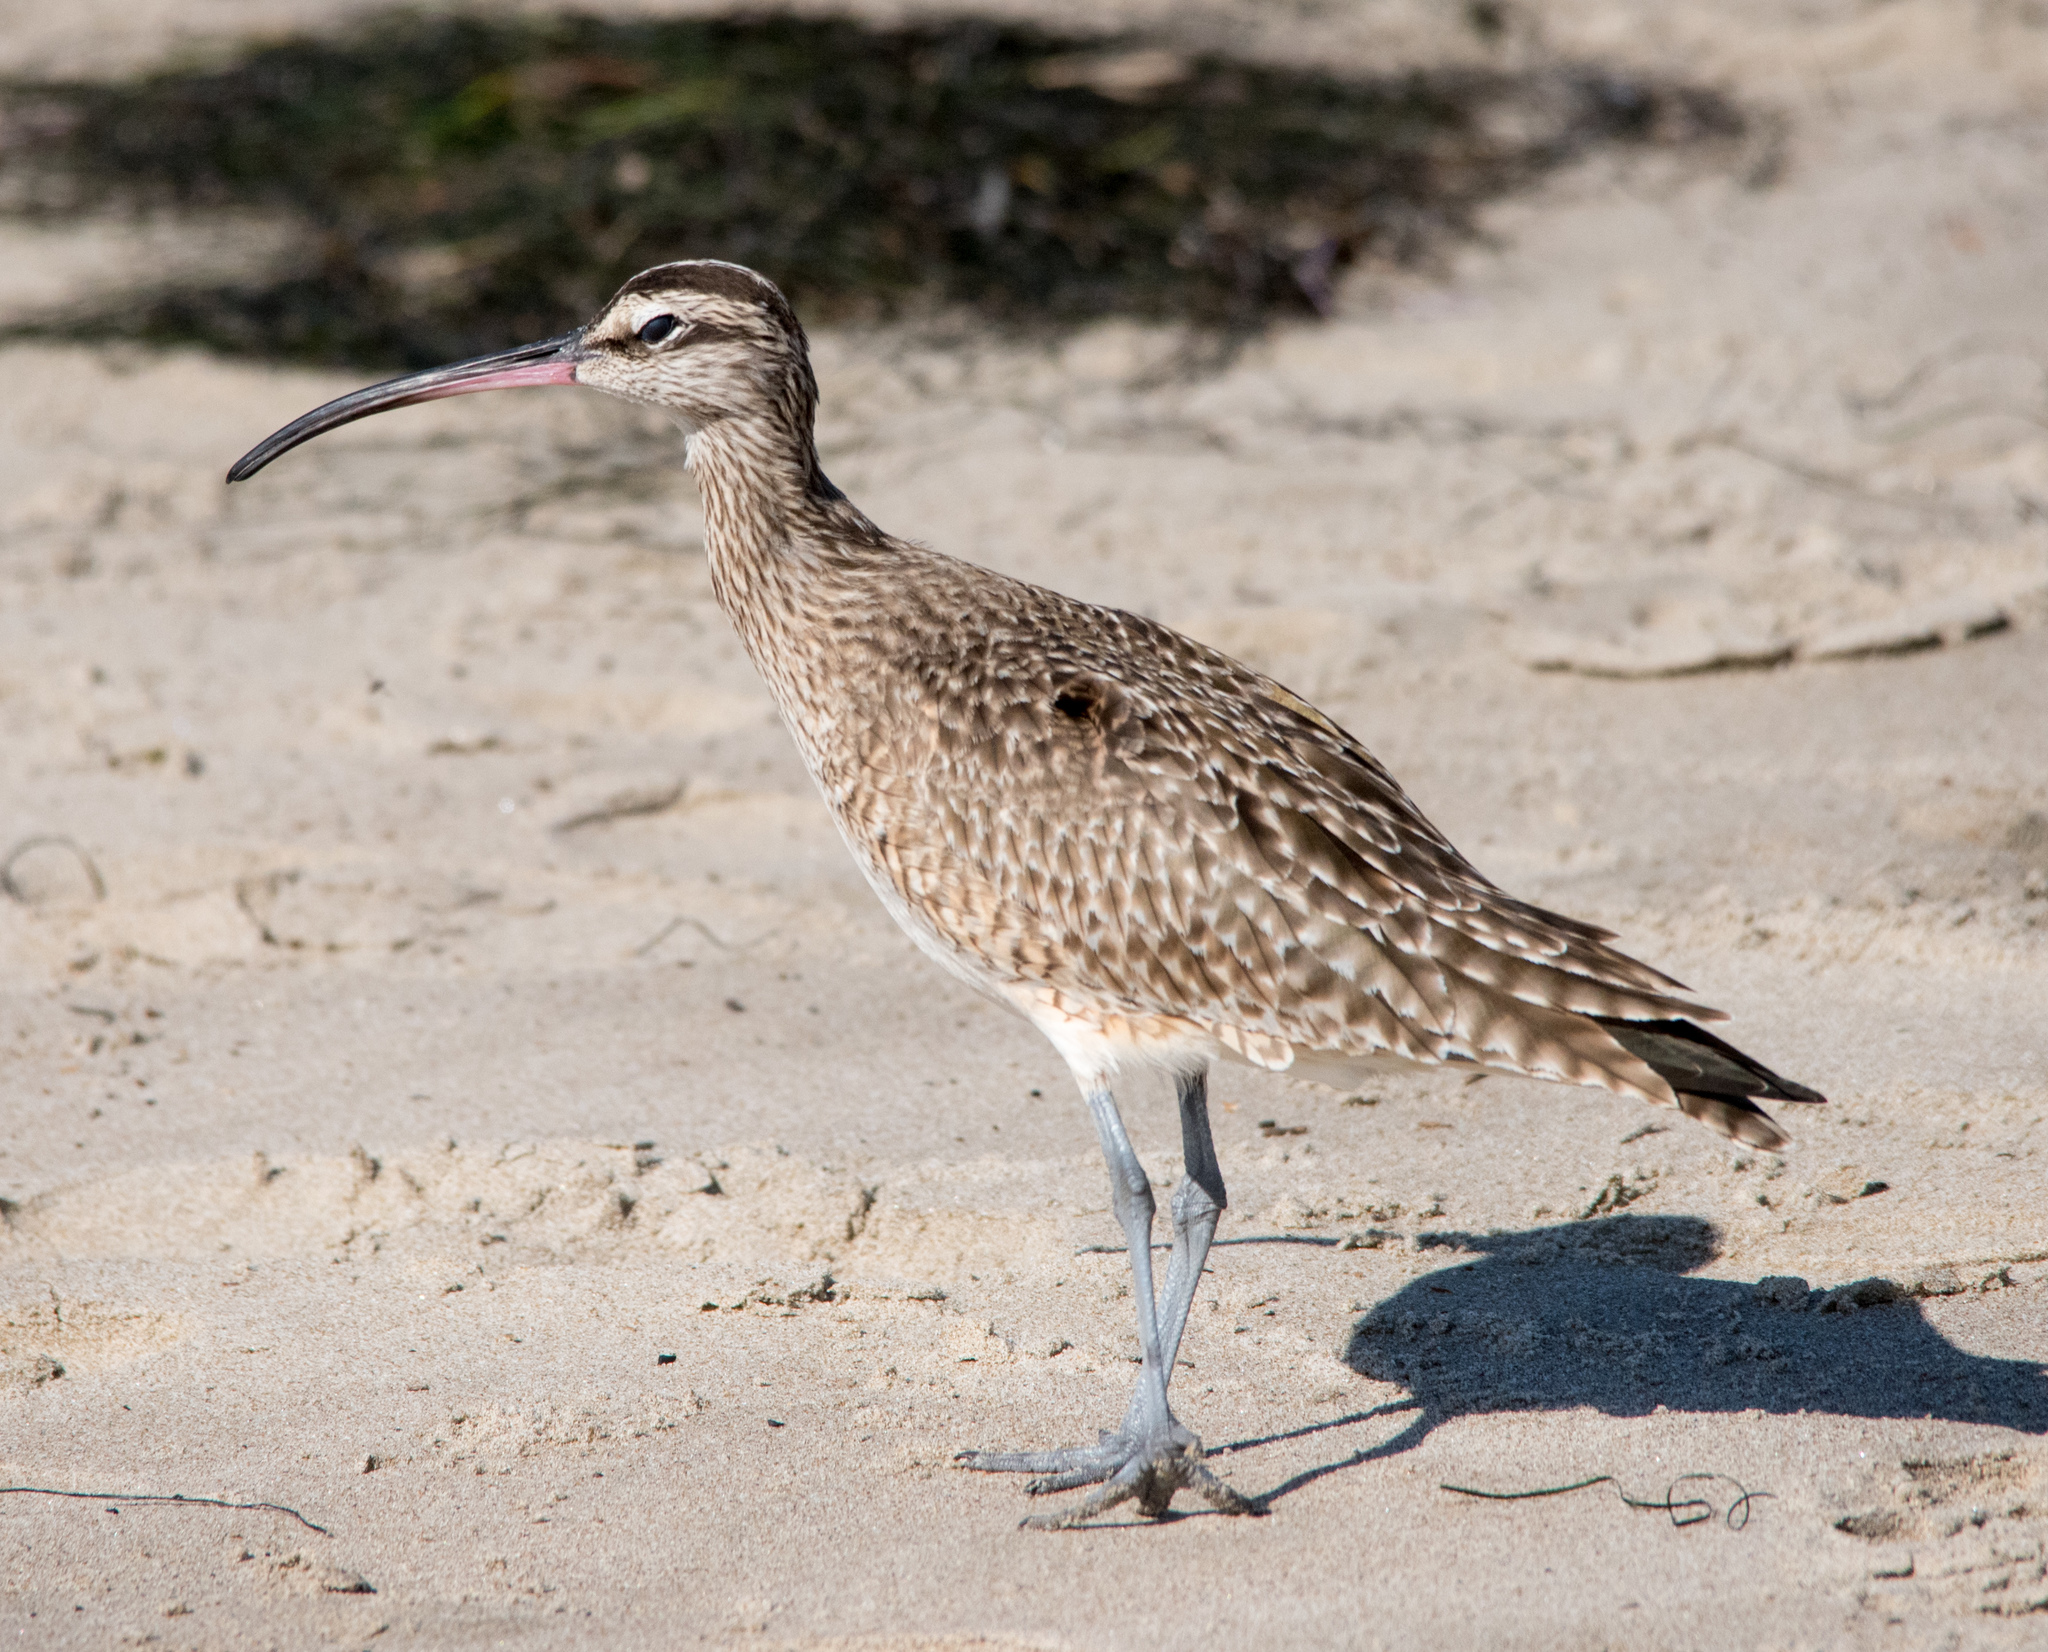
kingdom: Animalia
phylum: Chordata
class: Aves
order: Charadriiformes
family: Scolopacidae
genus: Numenius
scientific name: Numenius phaeopus
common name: Whimbrel
